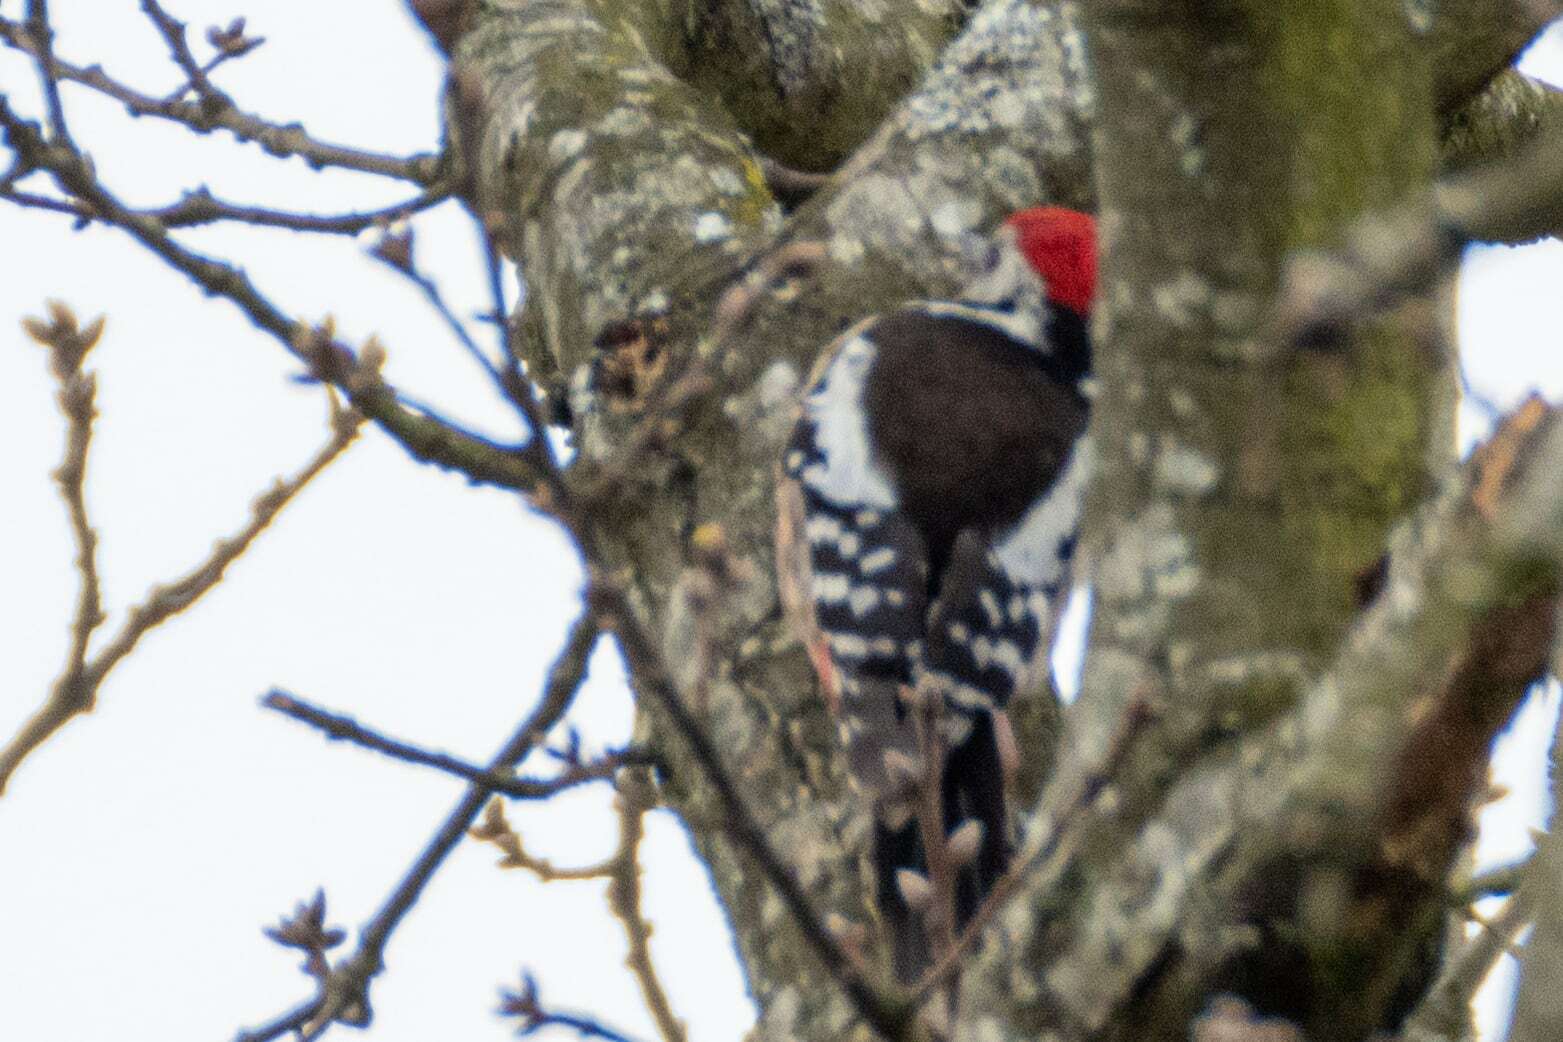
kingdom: Animalia
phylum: Chordata
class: Aves
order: Piciformes
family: Picidae
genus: Dendrocoptes
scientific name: Dendrocoptes medius
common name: Middle spotted woodpecker
